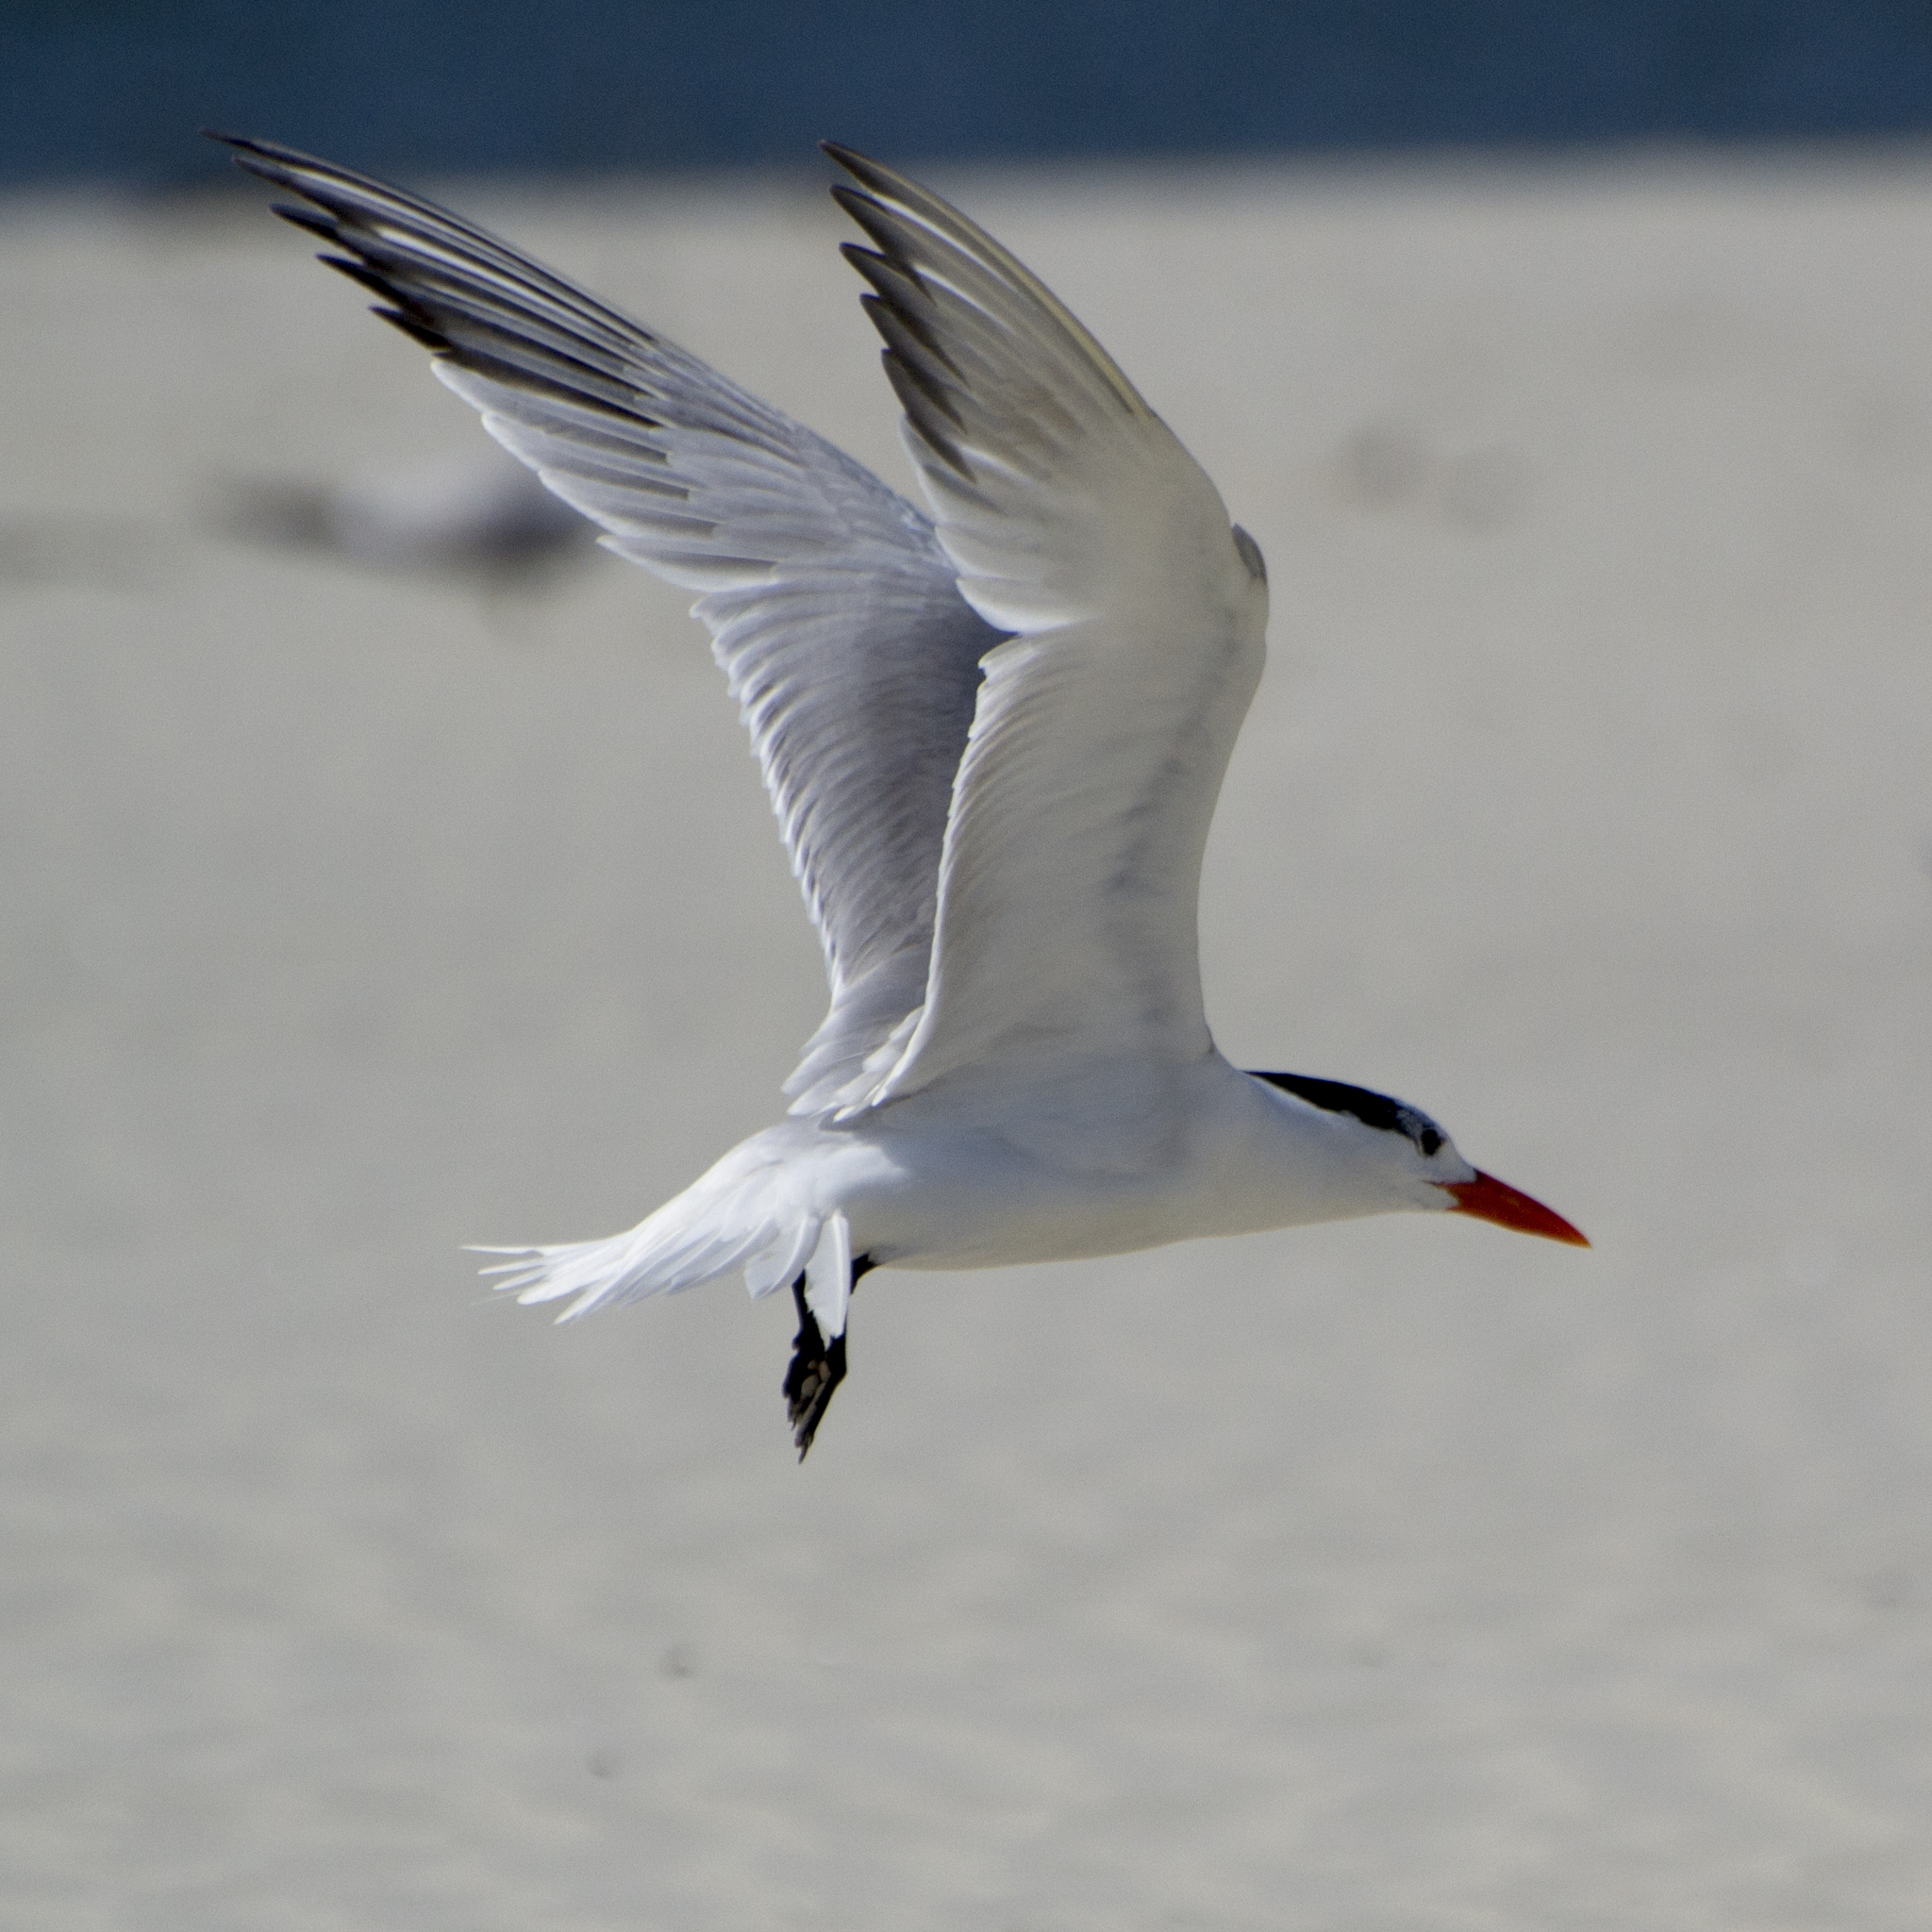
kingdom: Animalia
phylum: Chordata
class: Aves
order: Charadriiformes
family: Laridae
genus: Thalasseus
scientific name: Thalasseus maximus
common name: Royal tern
